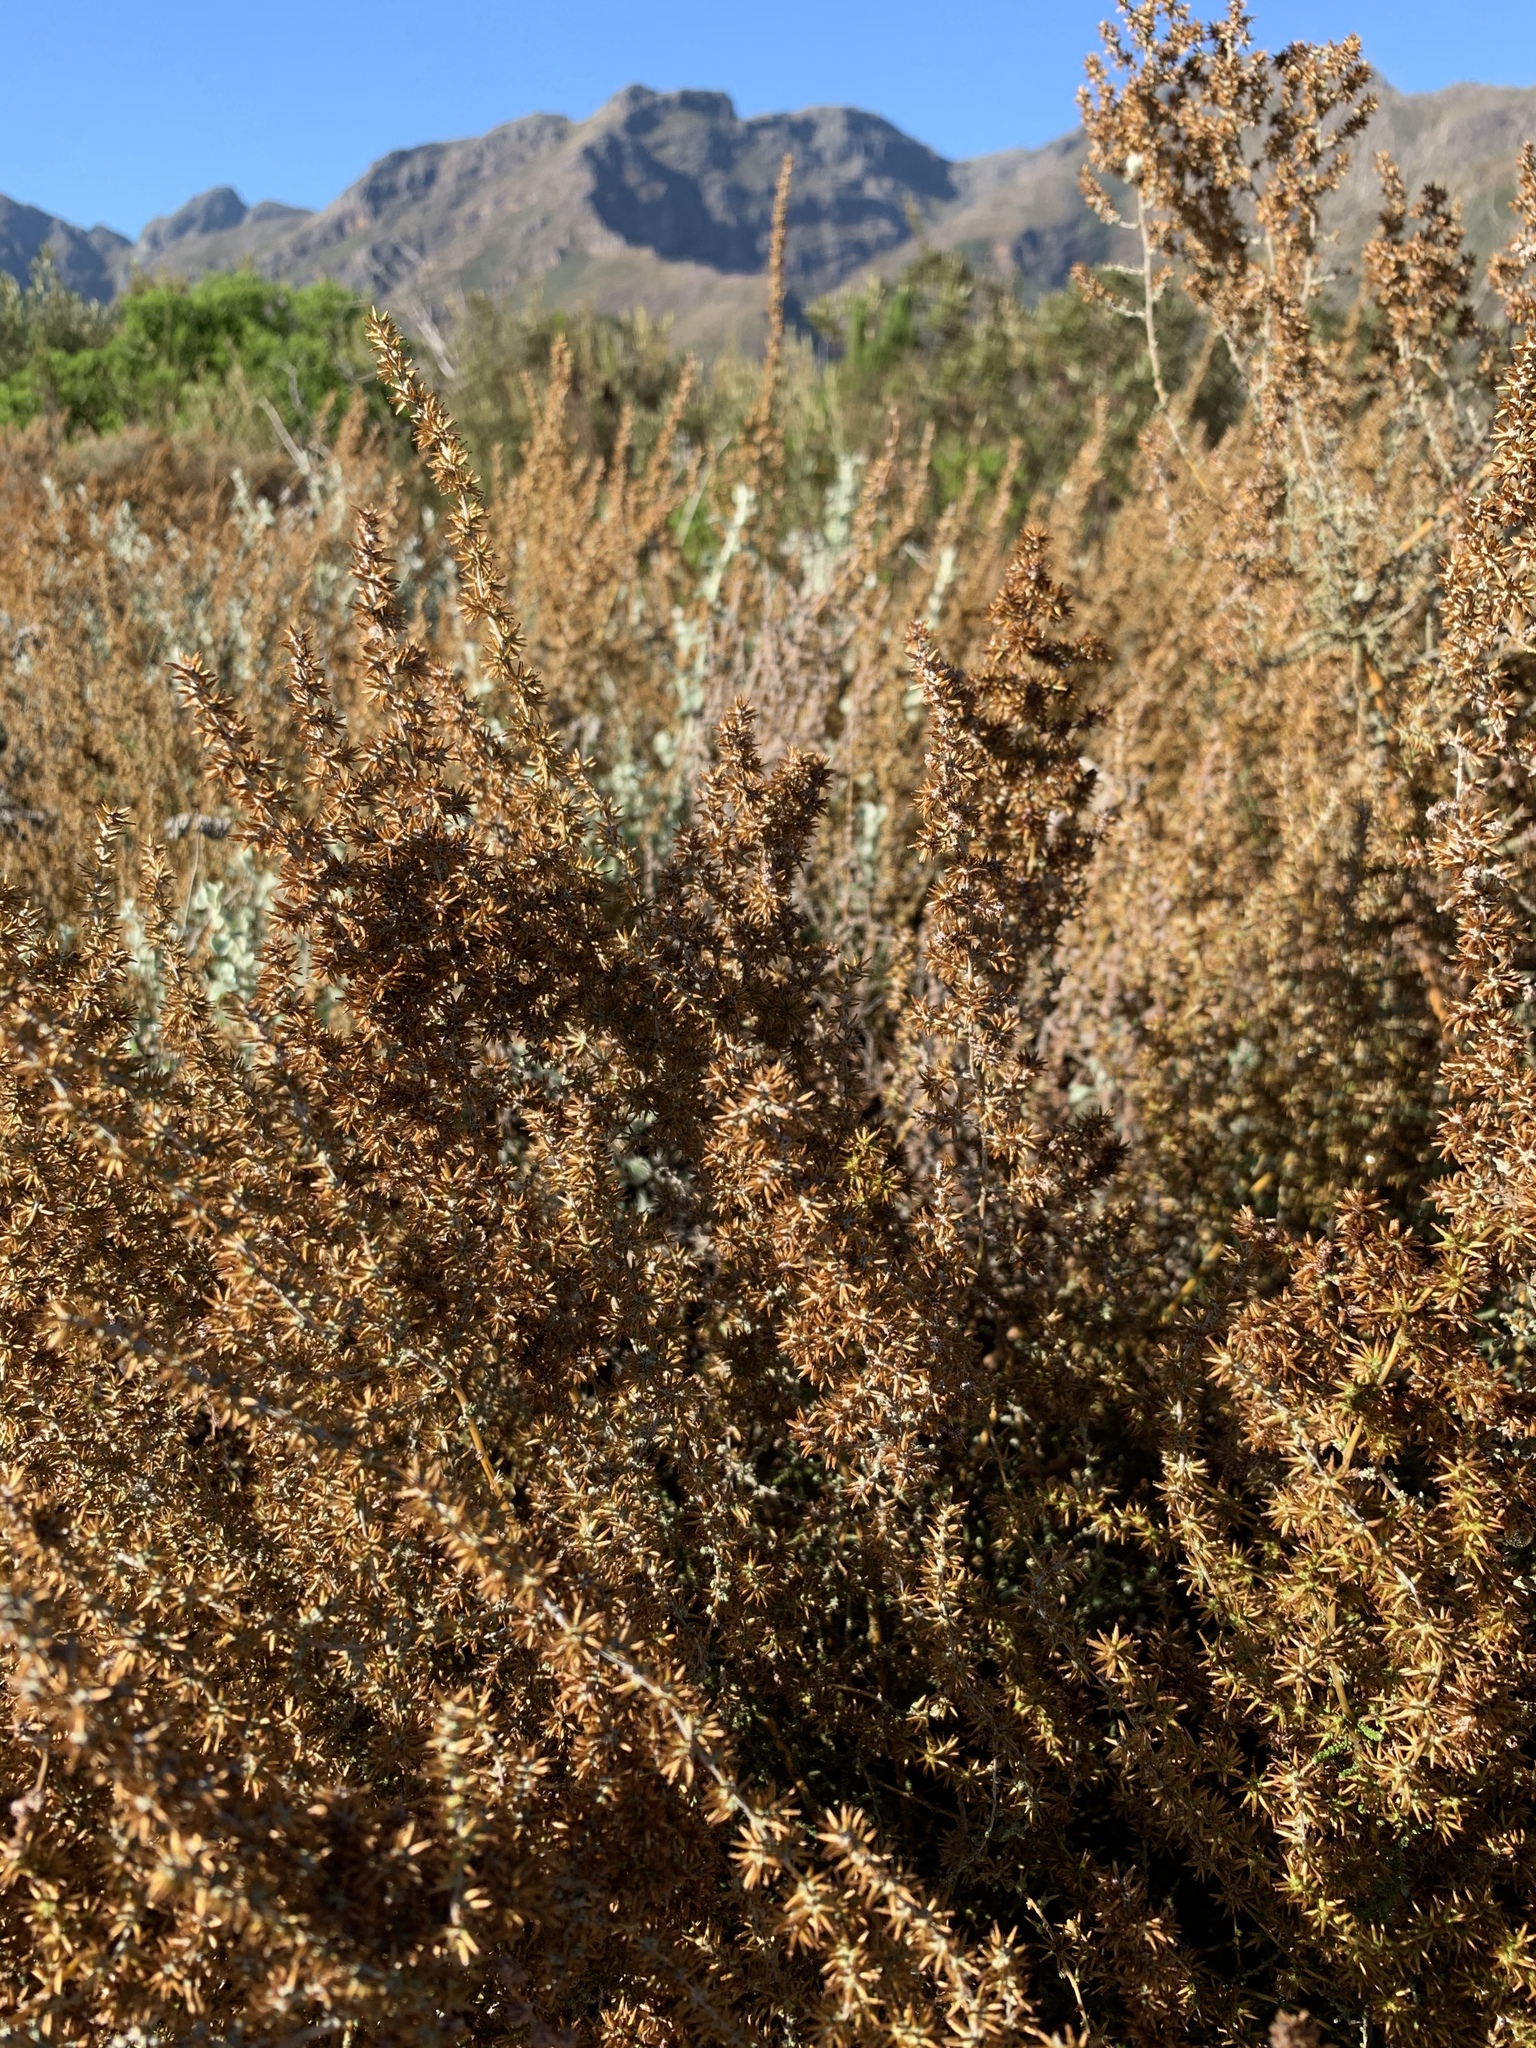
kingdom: Plantae
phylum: Tracheophyta
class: Magnoliopsida
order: Asterales
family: Asteraceae
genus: Seriphium
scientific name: Seriphium plumosum
